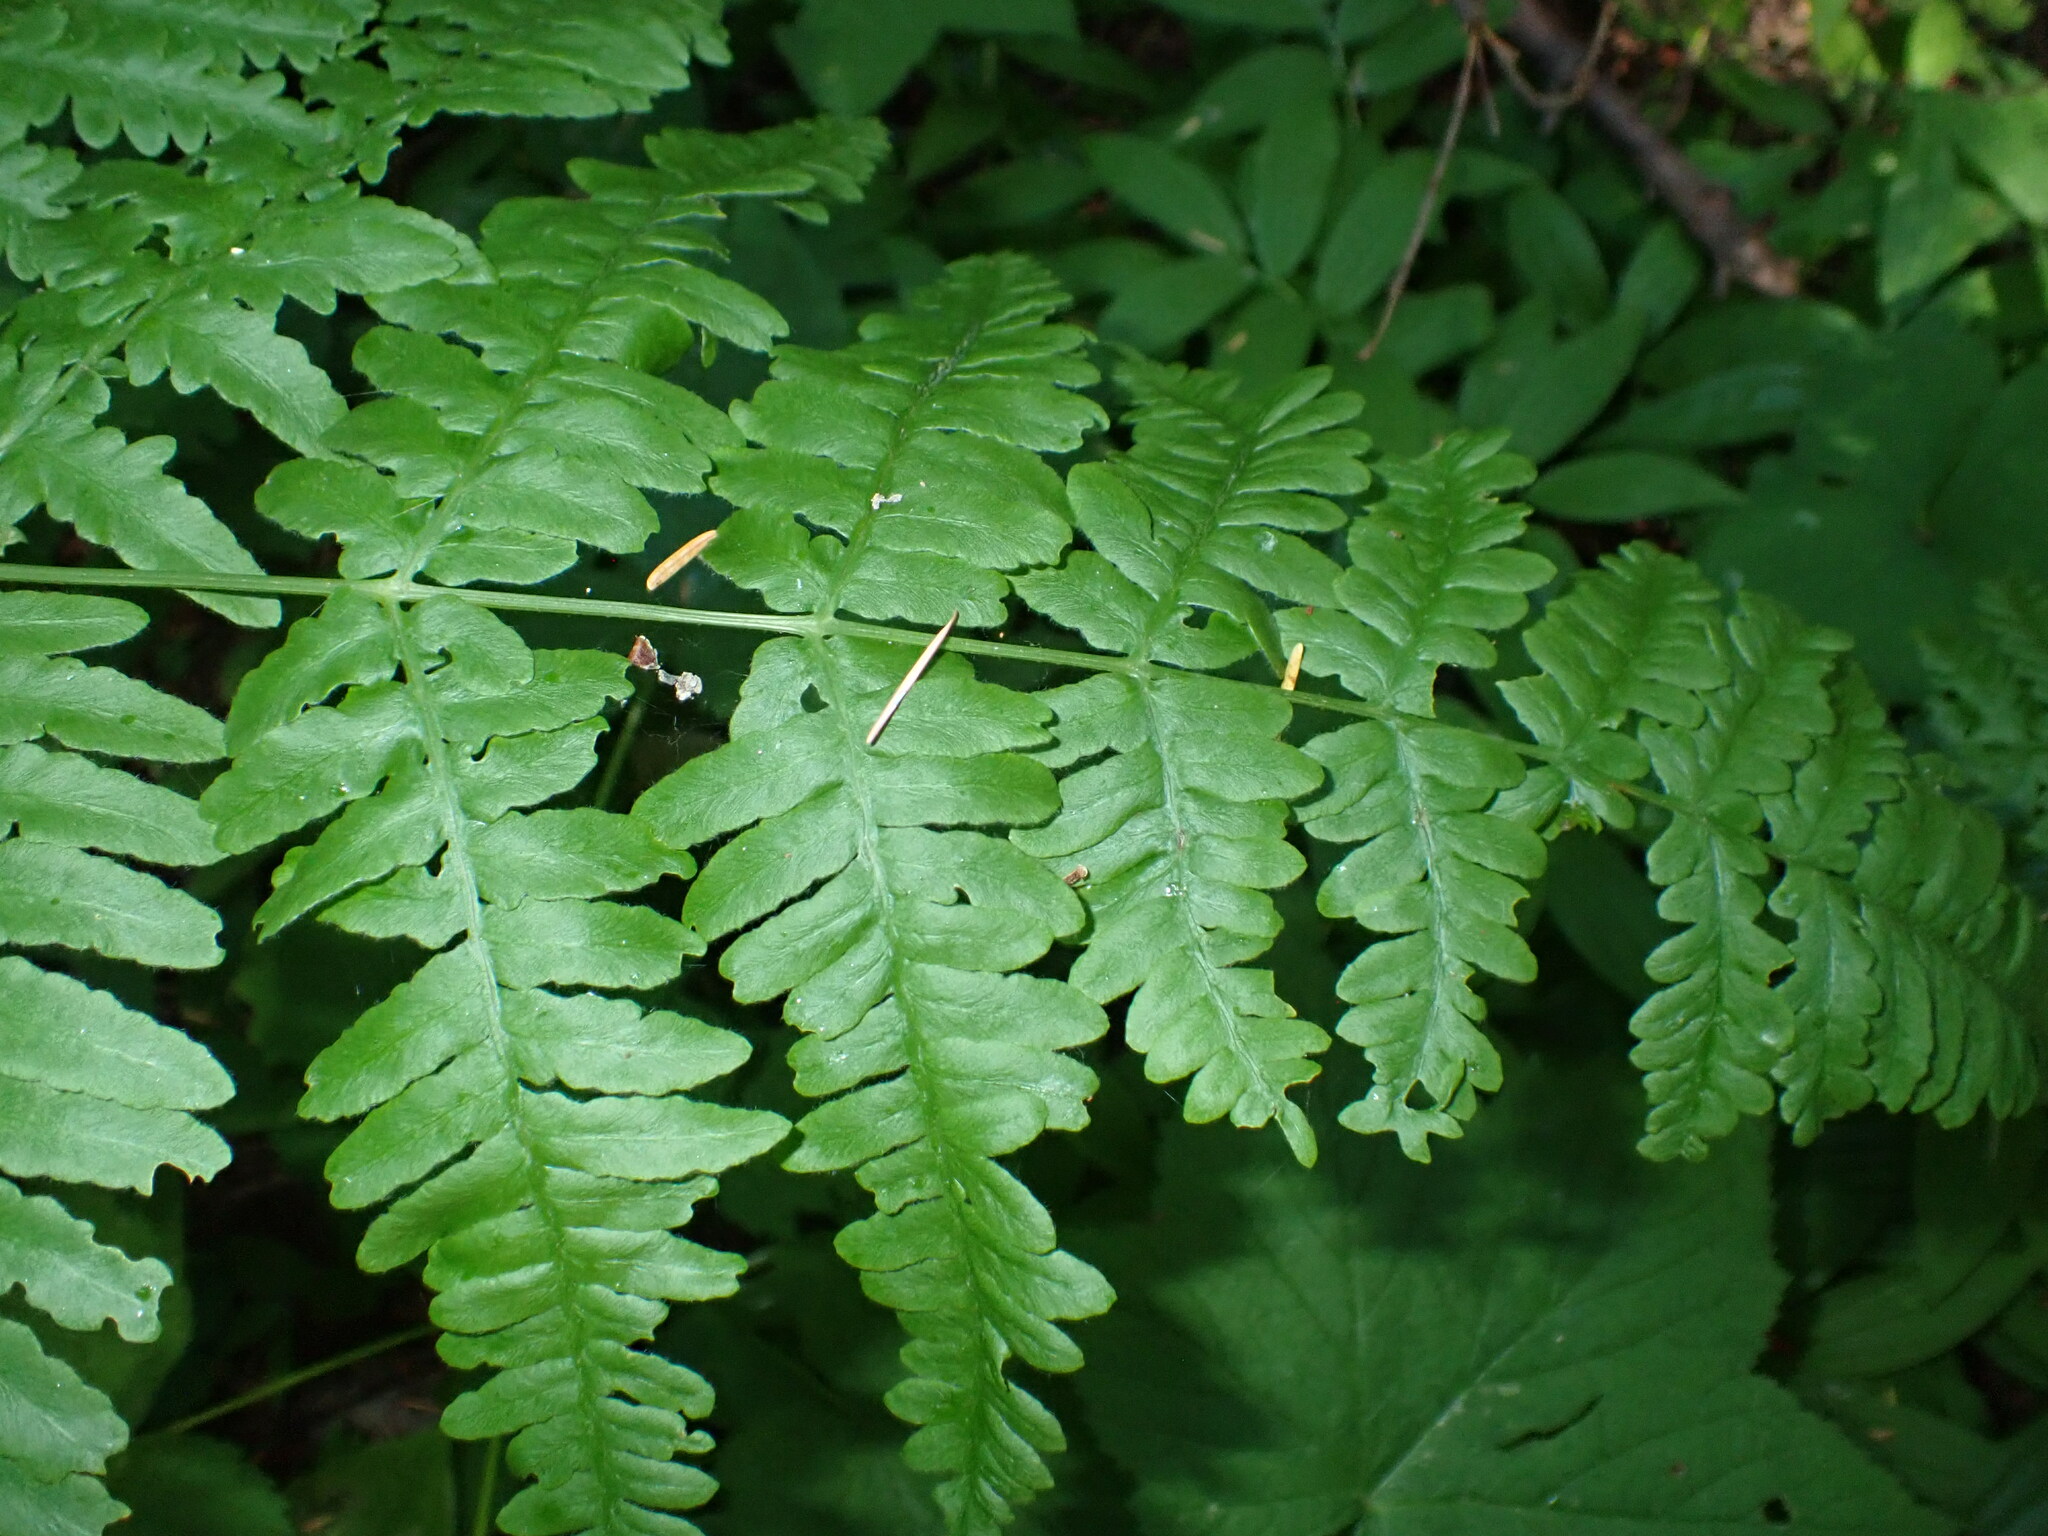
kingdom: Plantae
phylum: Tracheophyta
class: Polypodiopsida
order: Polypodiales
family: Dennstaedtiaceae
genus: Pteridium
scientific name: Pteridium aquilinum
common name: Bracken
